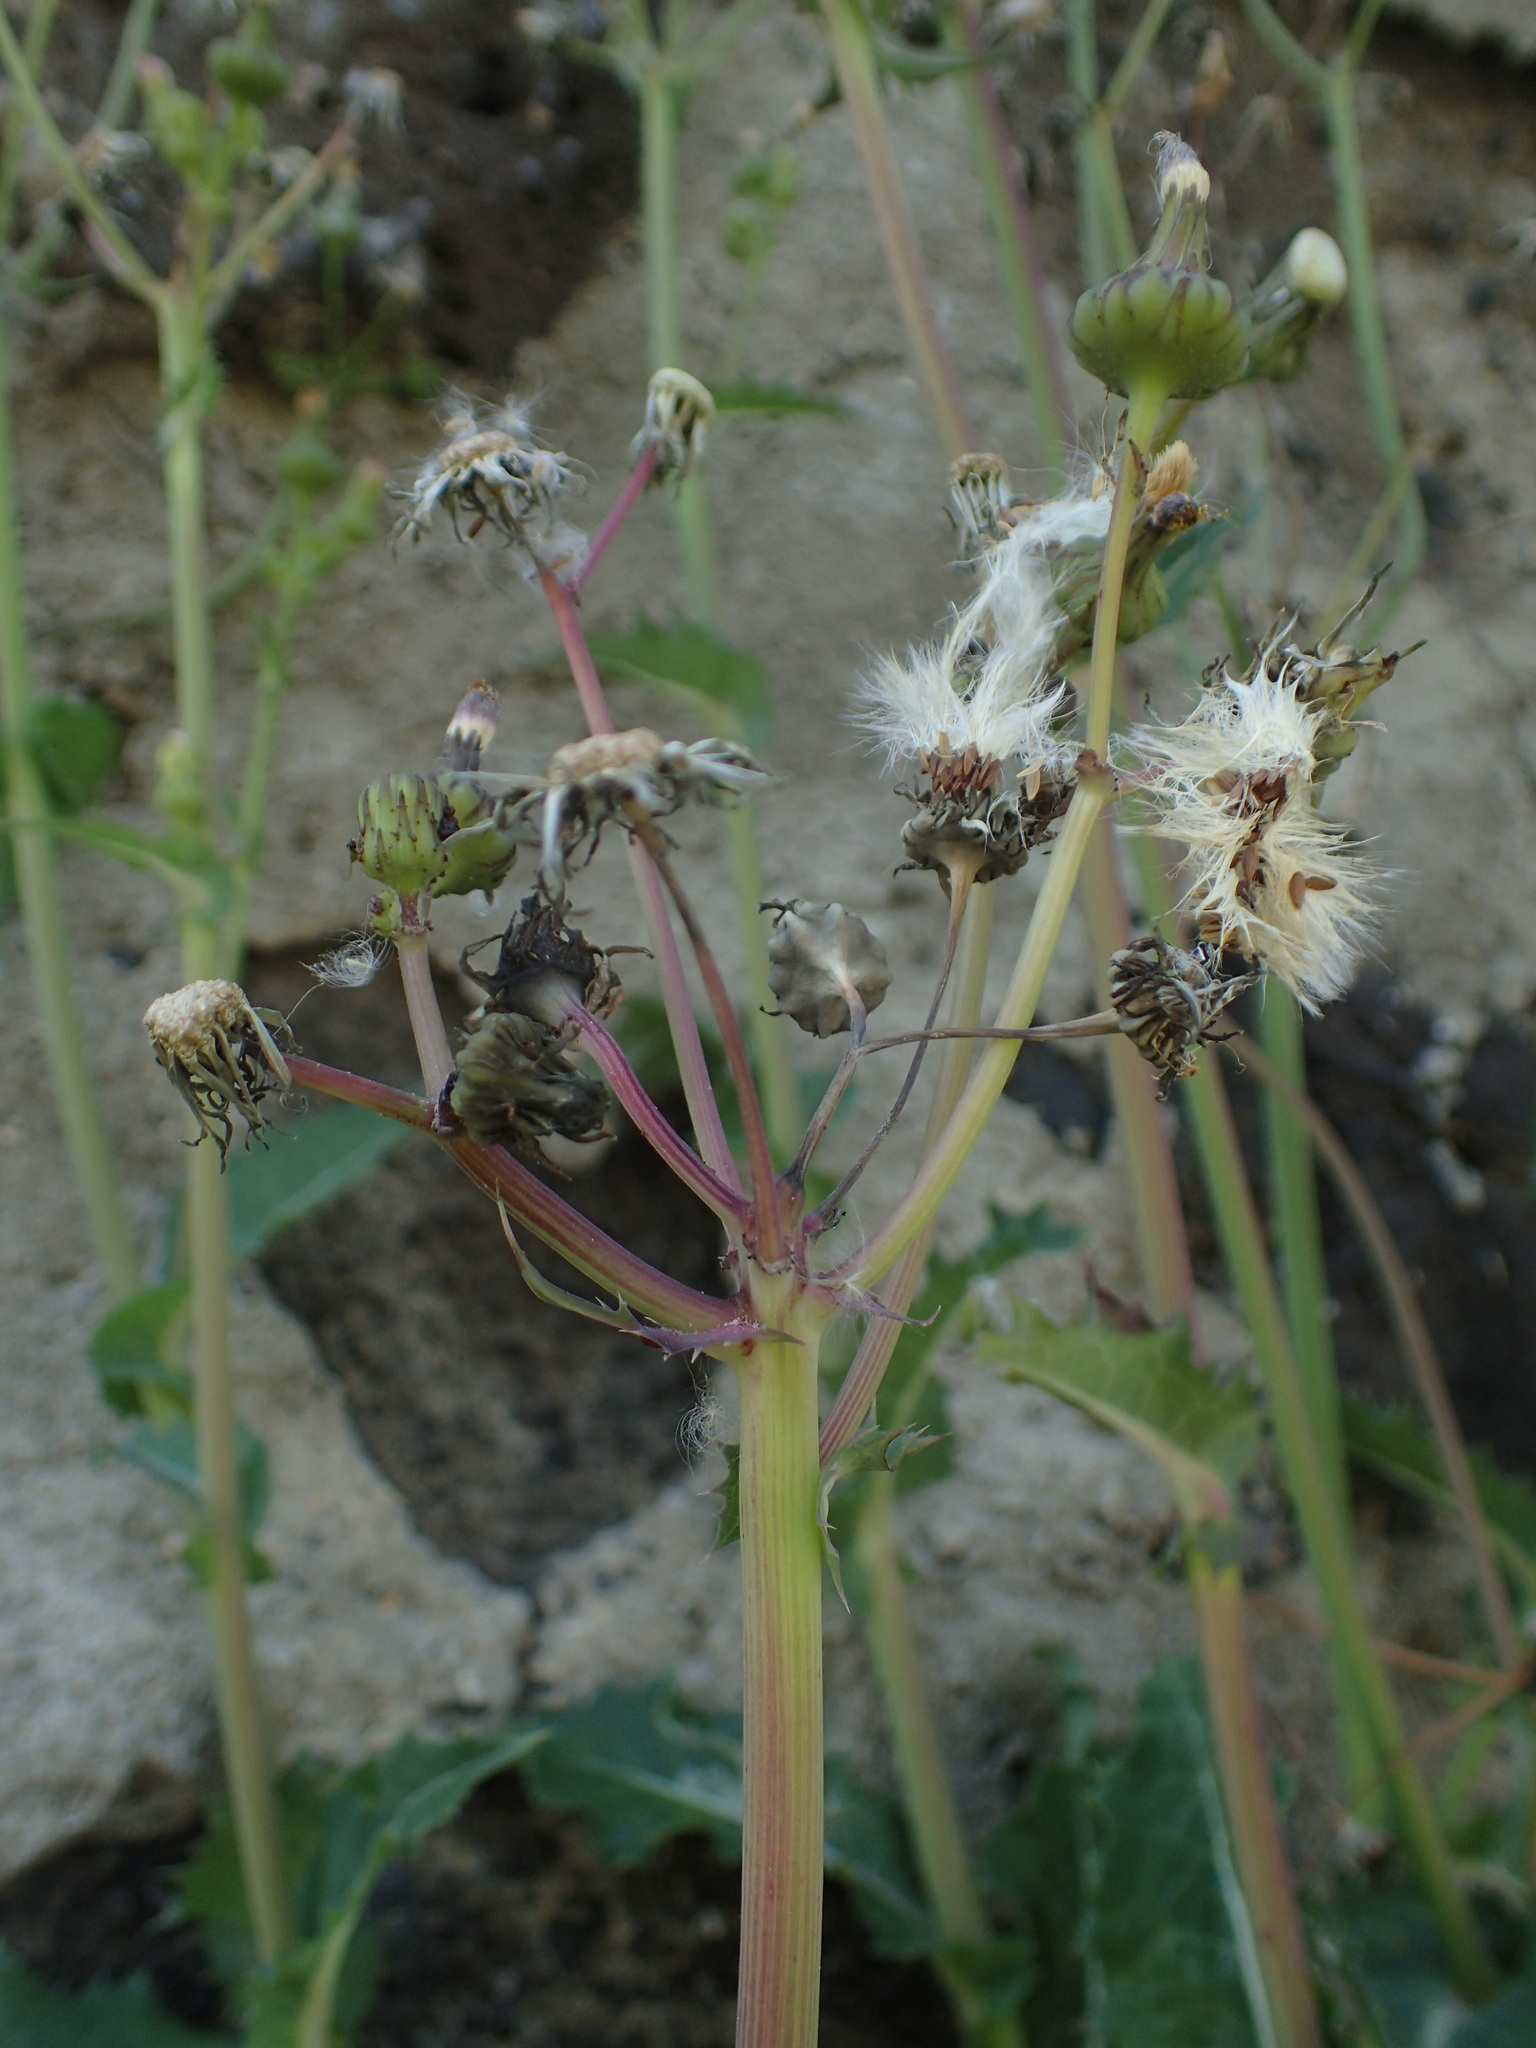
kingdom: Plantae
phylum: Tracheophyta
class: Magnoliopsida
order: Asterales
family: Asteraceae
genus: Sonchus
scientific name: Sonchus asper
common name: Prickly sow-thistle
